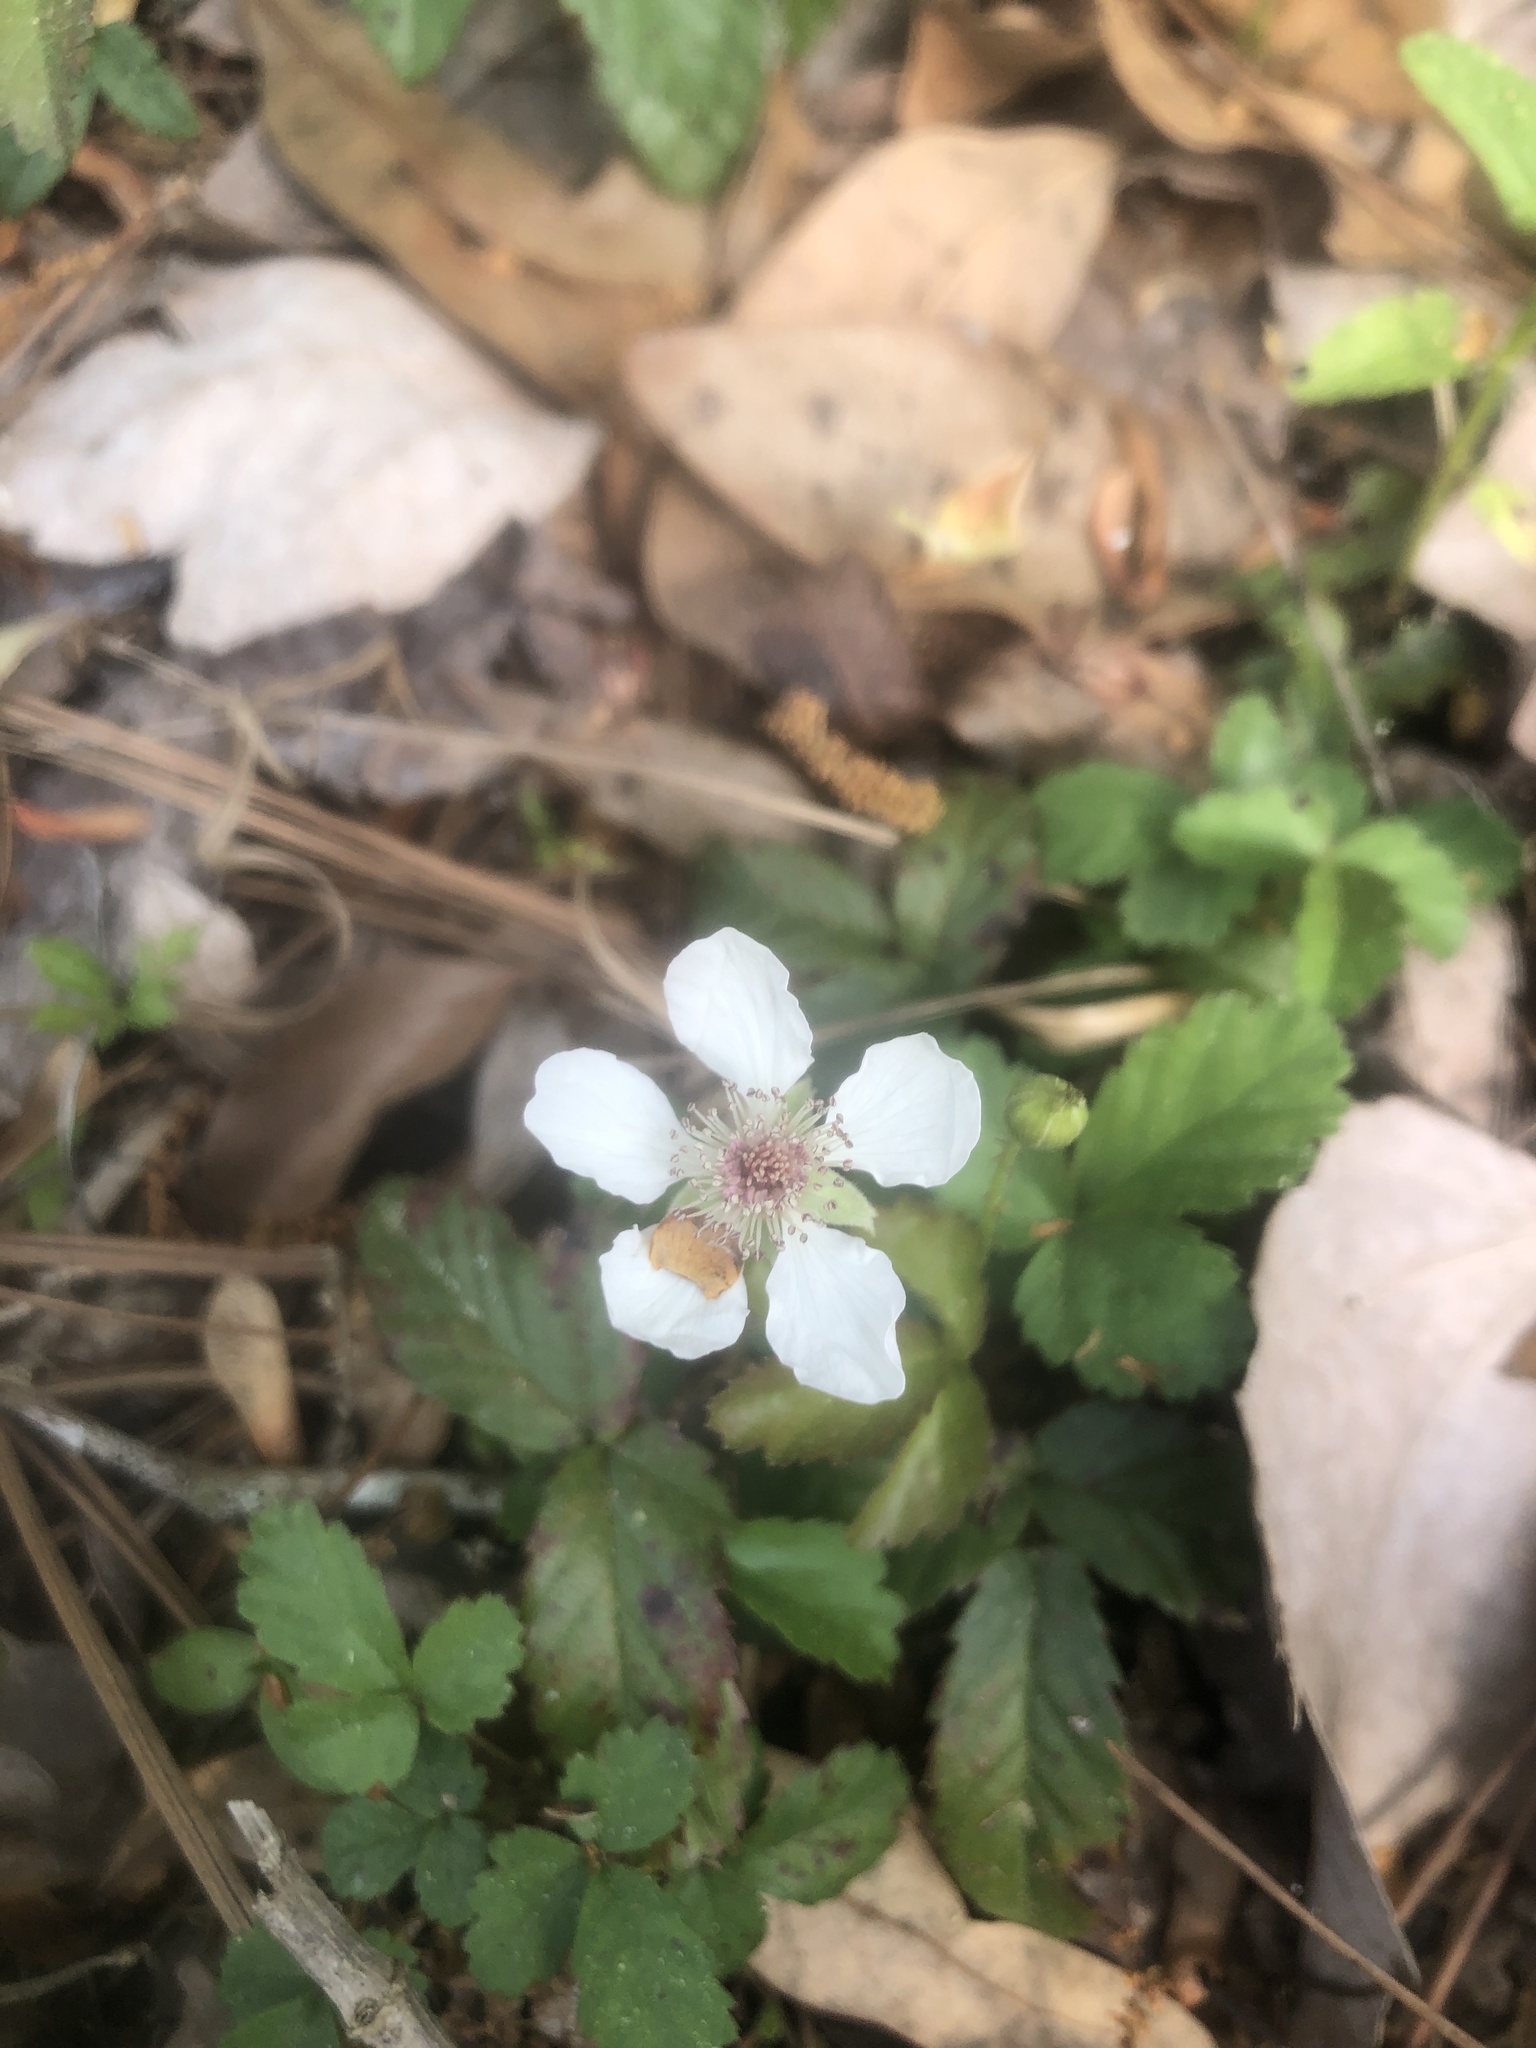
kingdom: Plantae
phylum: Tracheophyta
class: Magnoliopsida
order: Rosales
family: Rosaceae
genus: Rubus
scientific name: Rubus trivialis
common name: Southern dewberry
